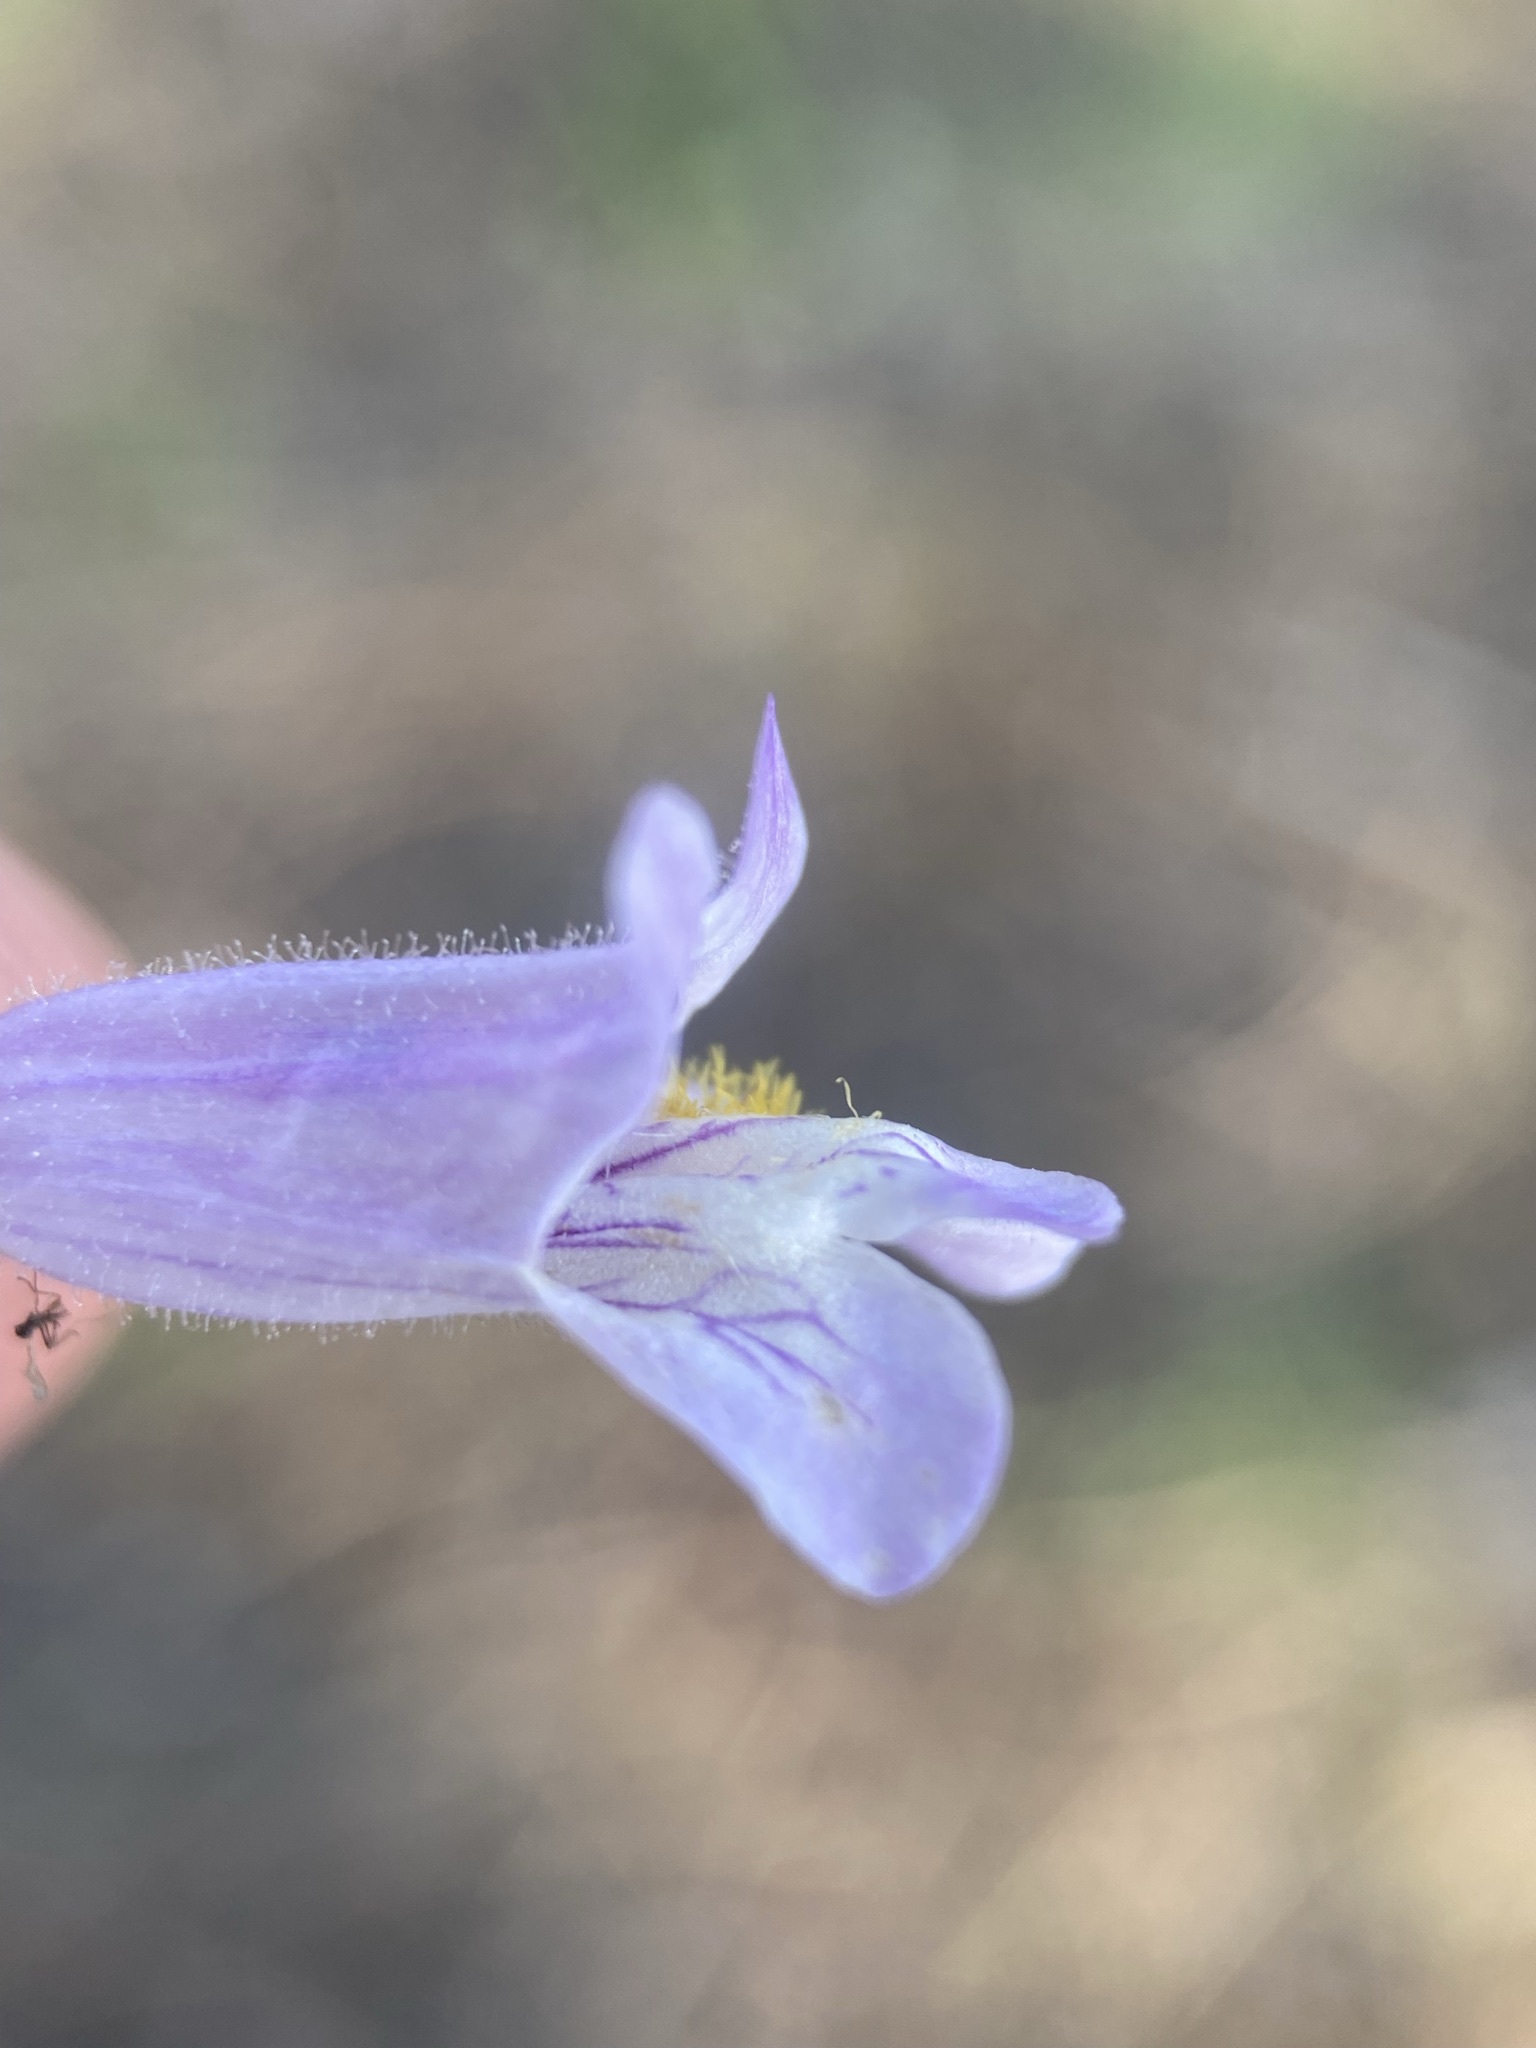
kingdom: Plantae
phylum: Tracheophyta
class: Magnoliopsida
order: Lamiales
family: Plantaginaceae
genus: Penstemon
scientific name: Penstemon gracilis
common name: Slender beardtongue
